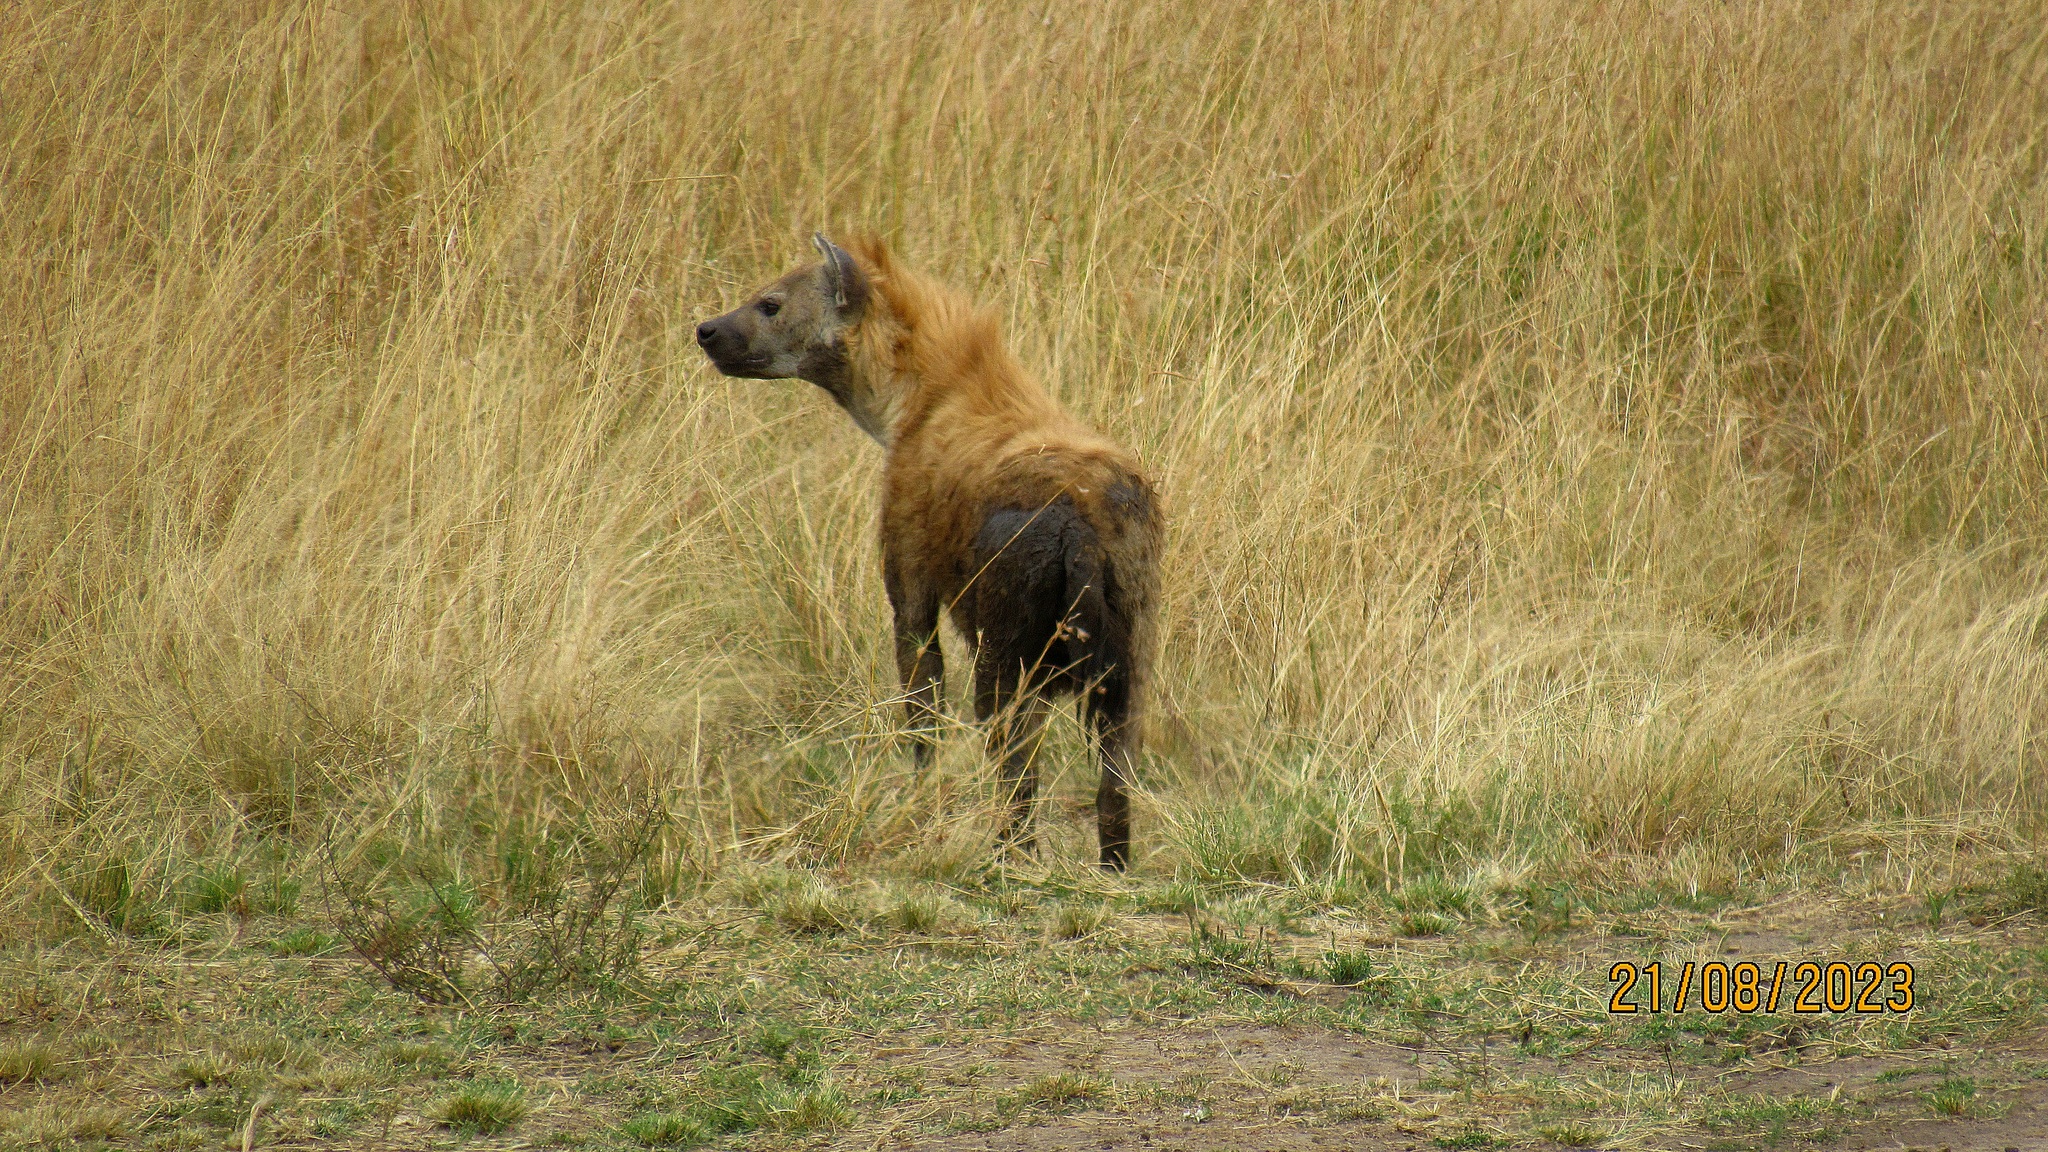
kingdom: Animalia
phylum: Chordata
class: Mammalia
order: Carnivora
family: Hyaenidae
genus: Crocuta
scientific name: Crocuta crocuta
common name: Spotted hyaena
